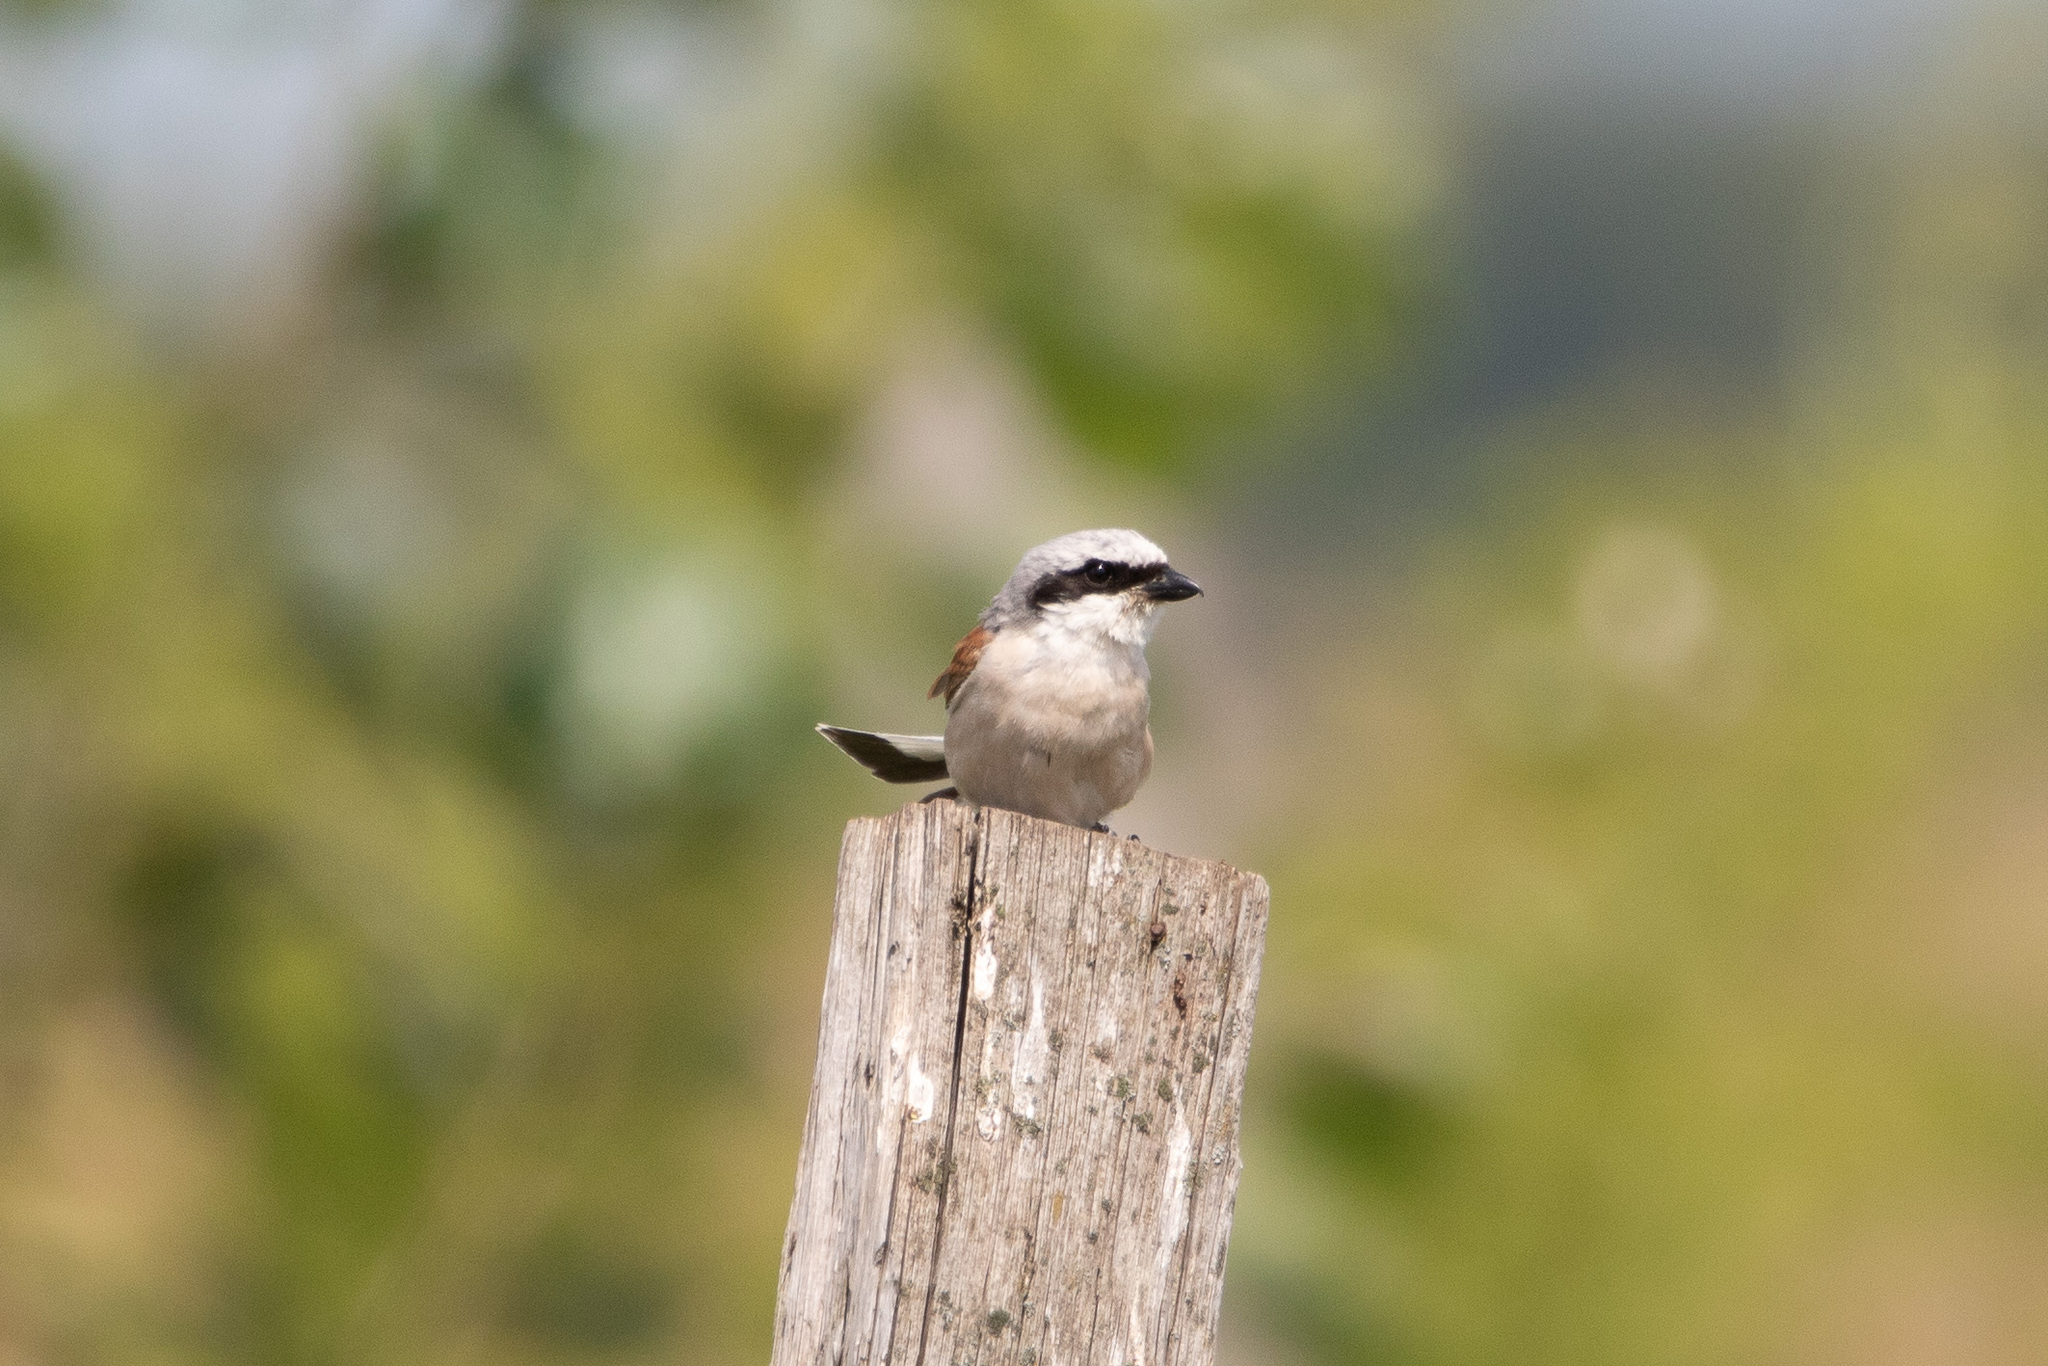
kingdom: Animalia
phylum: Chordata
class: Aves
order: Passeriformes
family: Laniidae
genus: Lanius
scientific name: Lanius collurio
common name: Red-backed shrike
